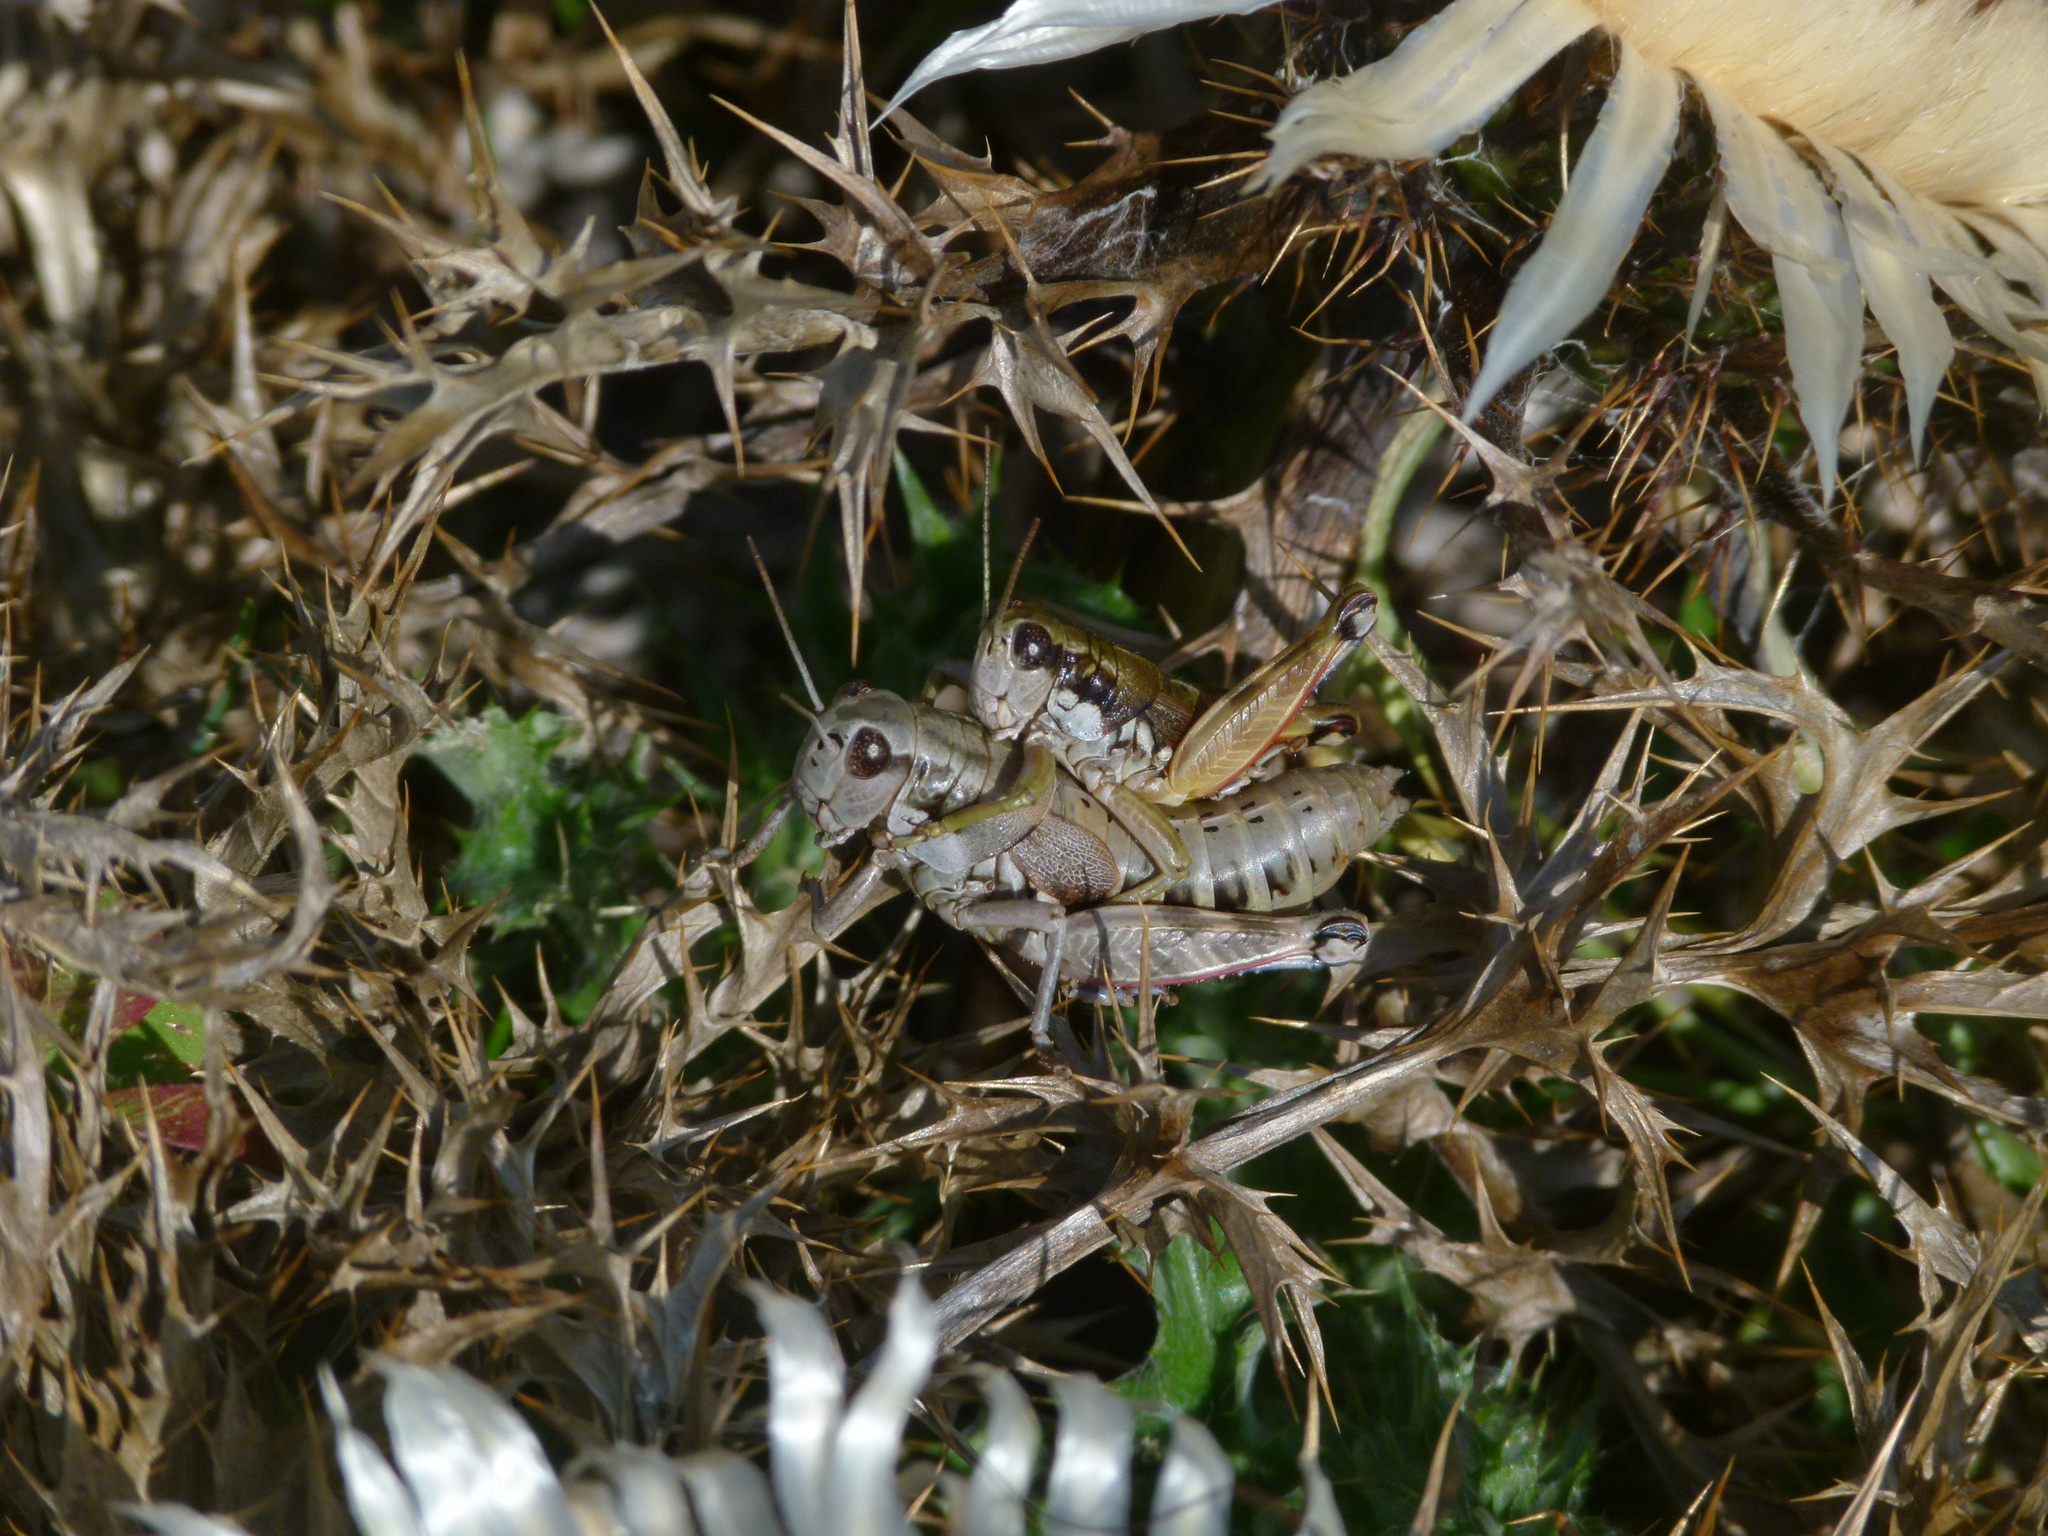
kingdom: Animalia
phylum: Arthropoda
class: Insecta
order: Orthoptera
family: Acrididae
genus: Podisma
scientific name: Podisma amedegnatoae
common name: Ventoux mountain grasshopper
